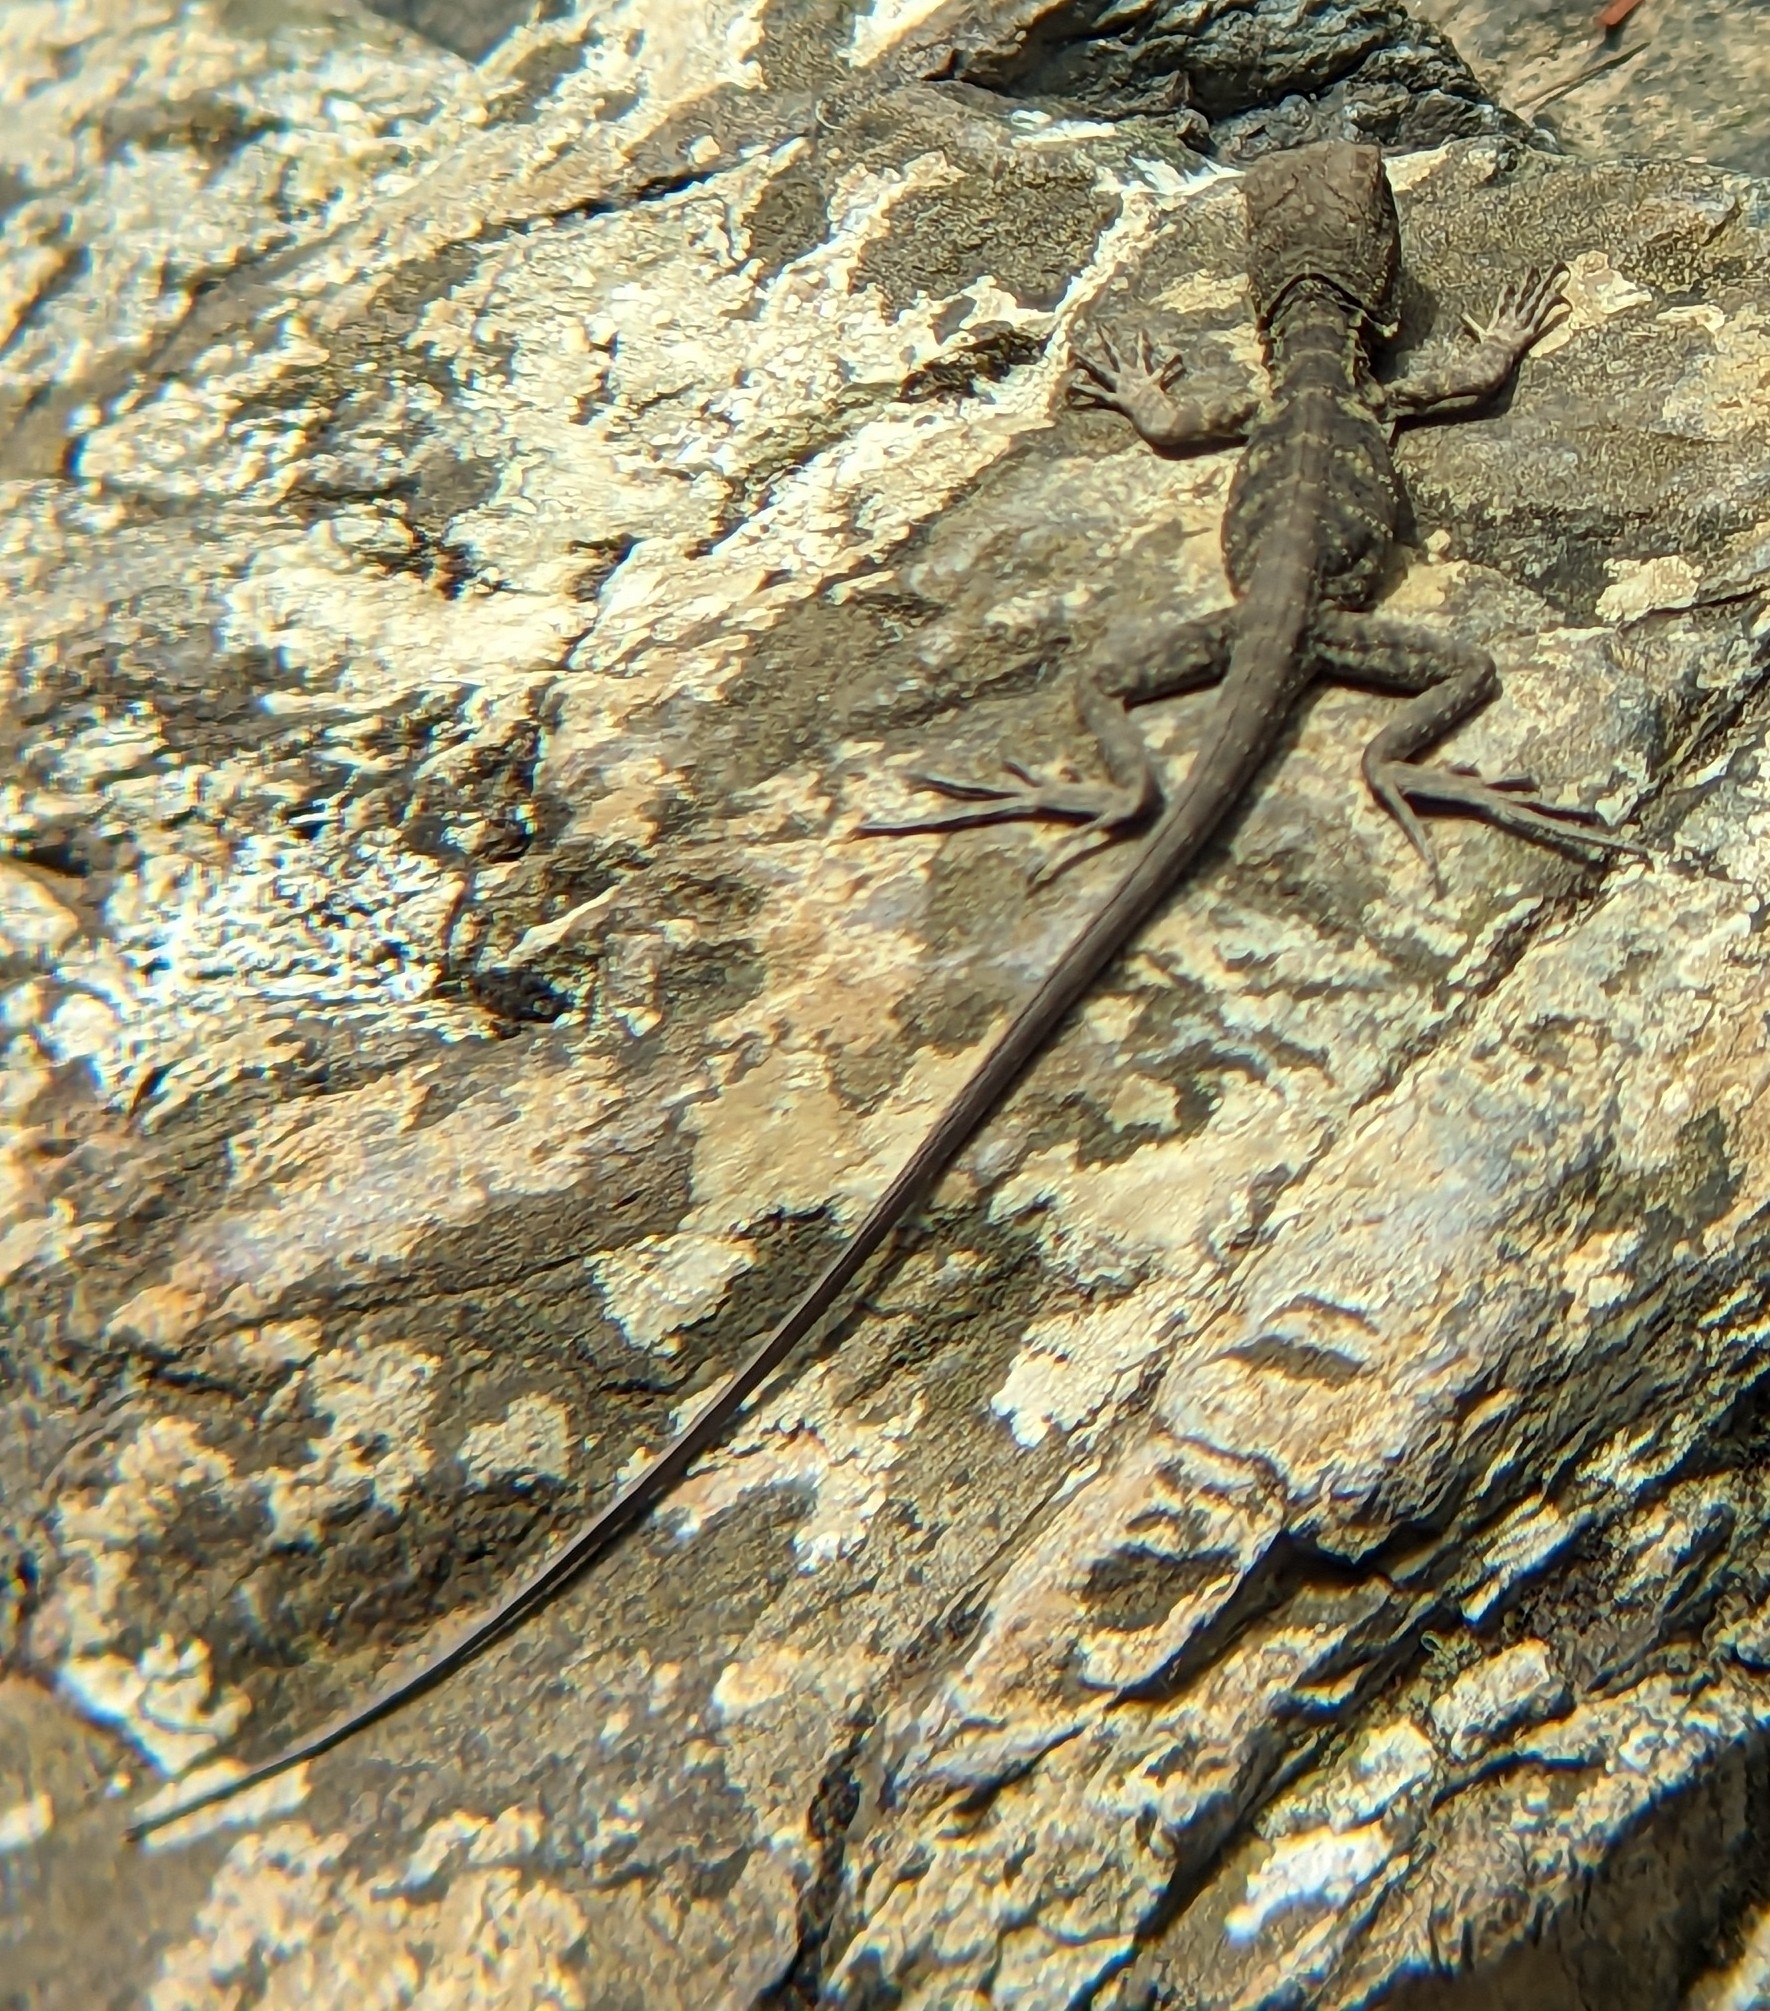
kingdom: Animalia
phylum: Chordata
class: Squamata
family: Agamidae
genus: Intellagama
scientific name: Intellagama lesueurii
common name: Eastern water dragon
